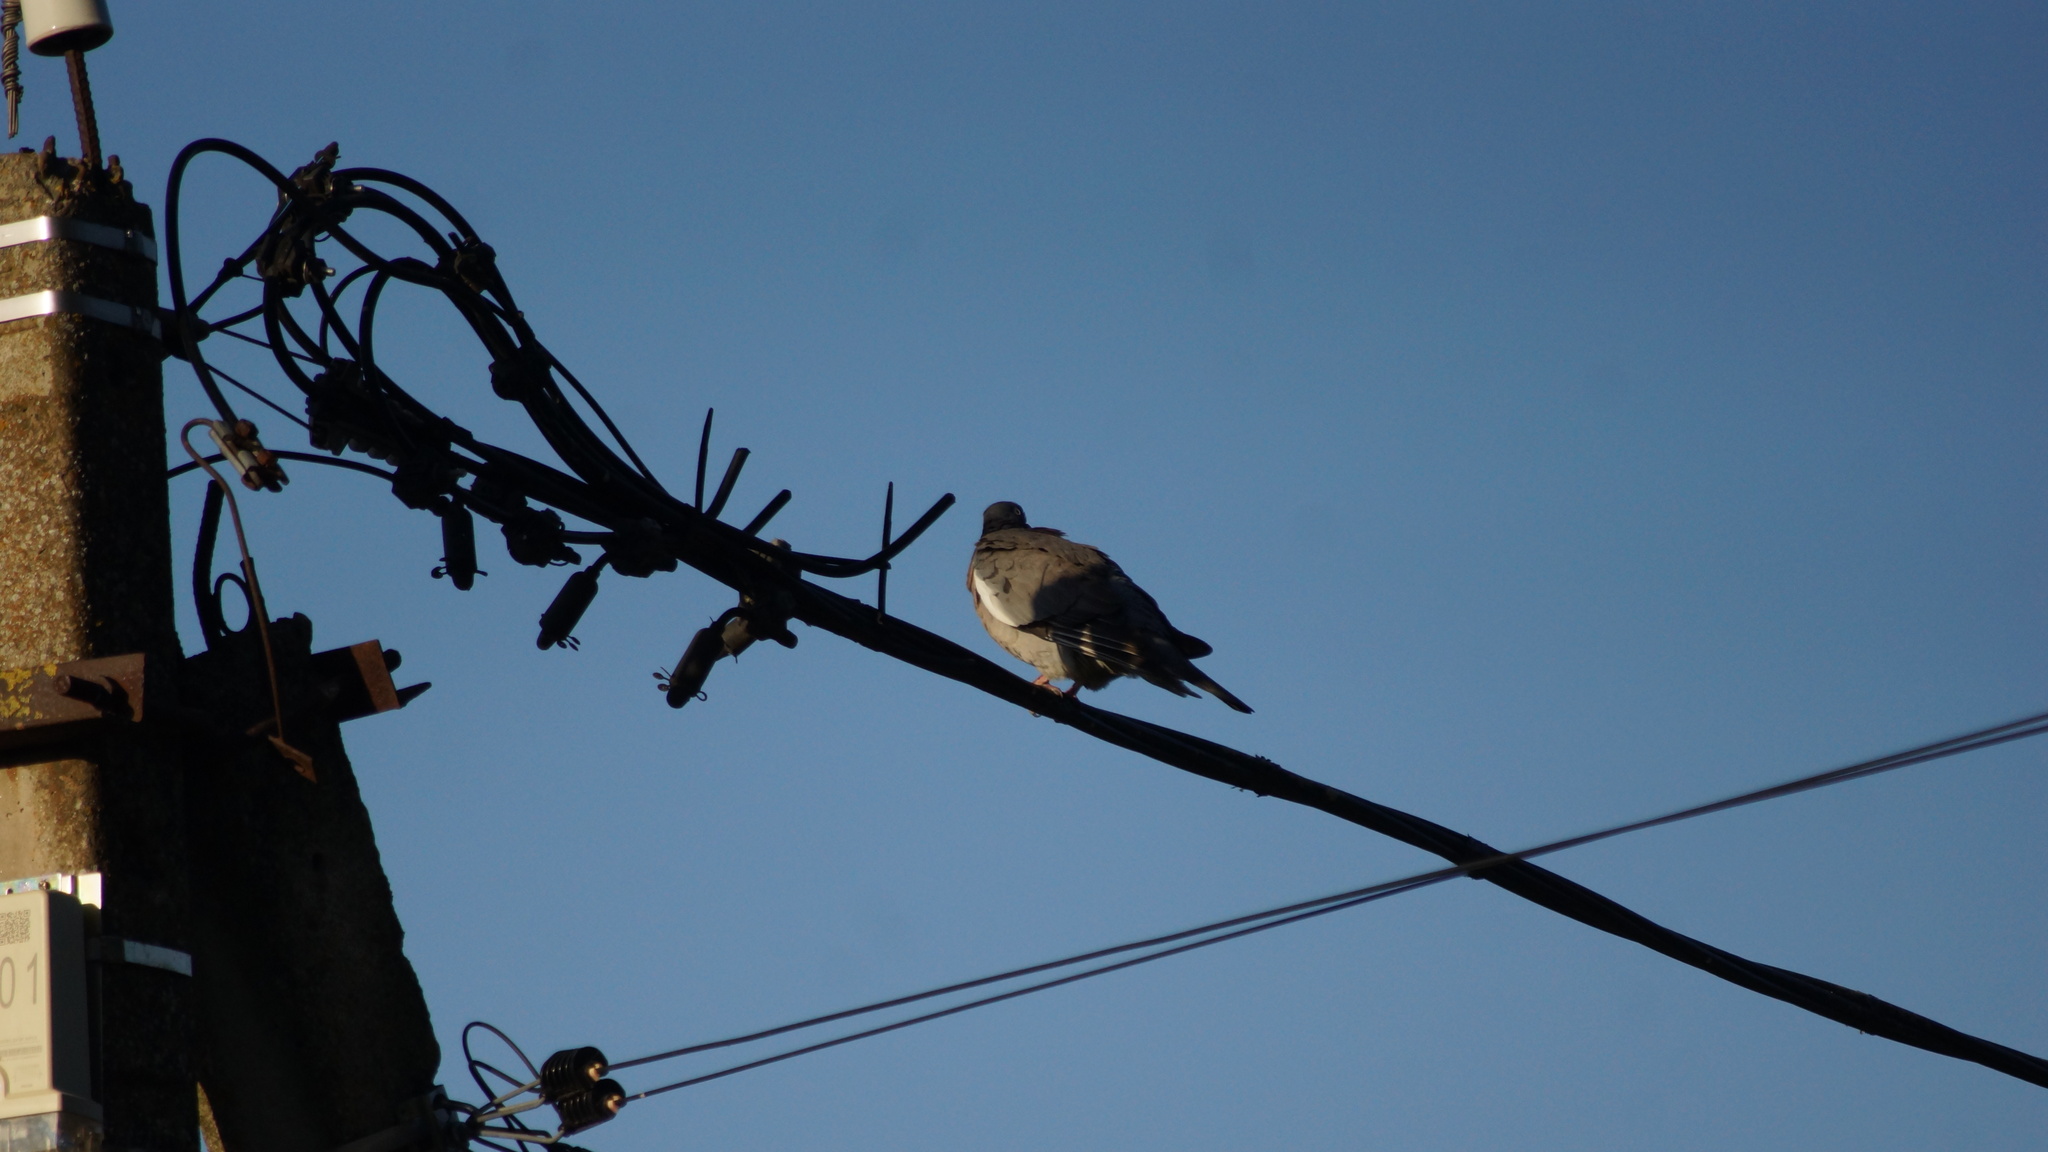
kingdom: Animalia
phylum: Chordata
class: Aves
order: Columbiformes
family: Columbidae
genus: Columba
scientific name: Columba palumbus
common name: Common wood pigeon
